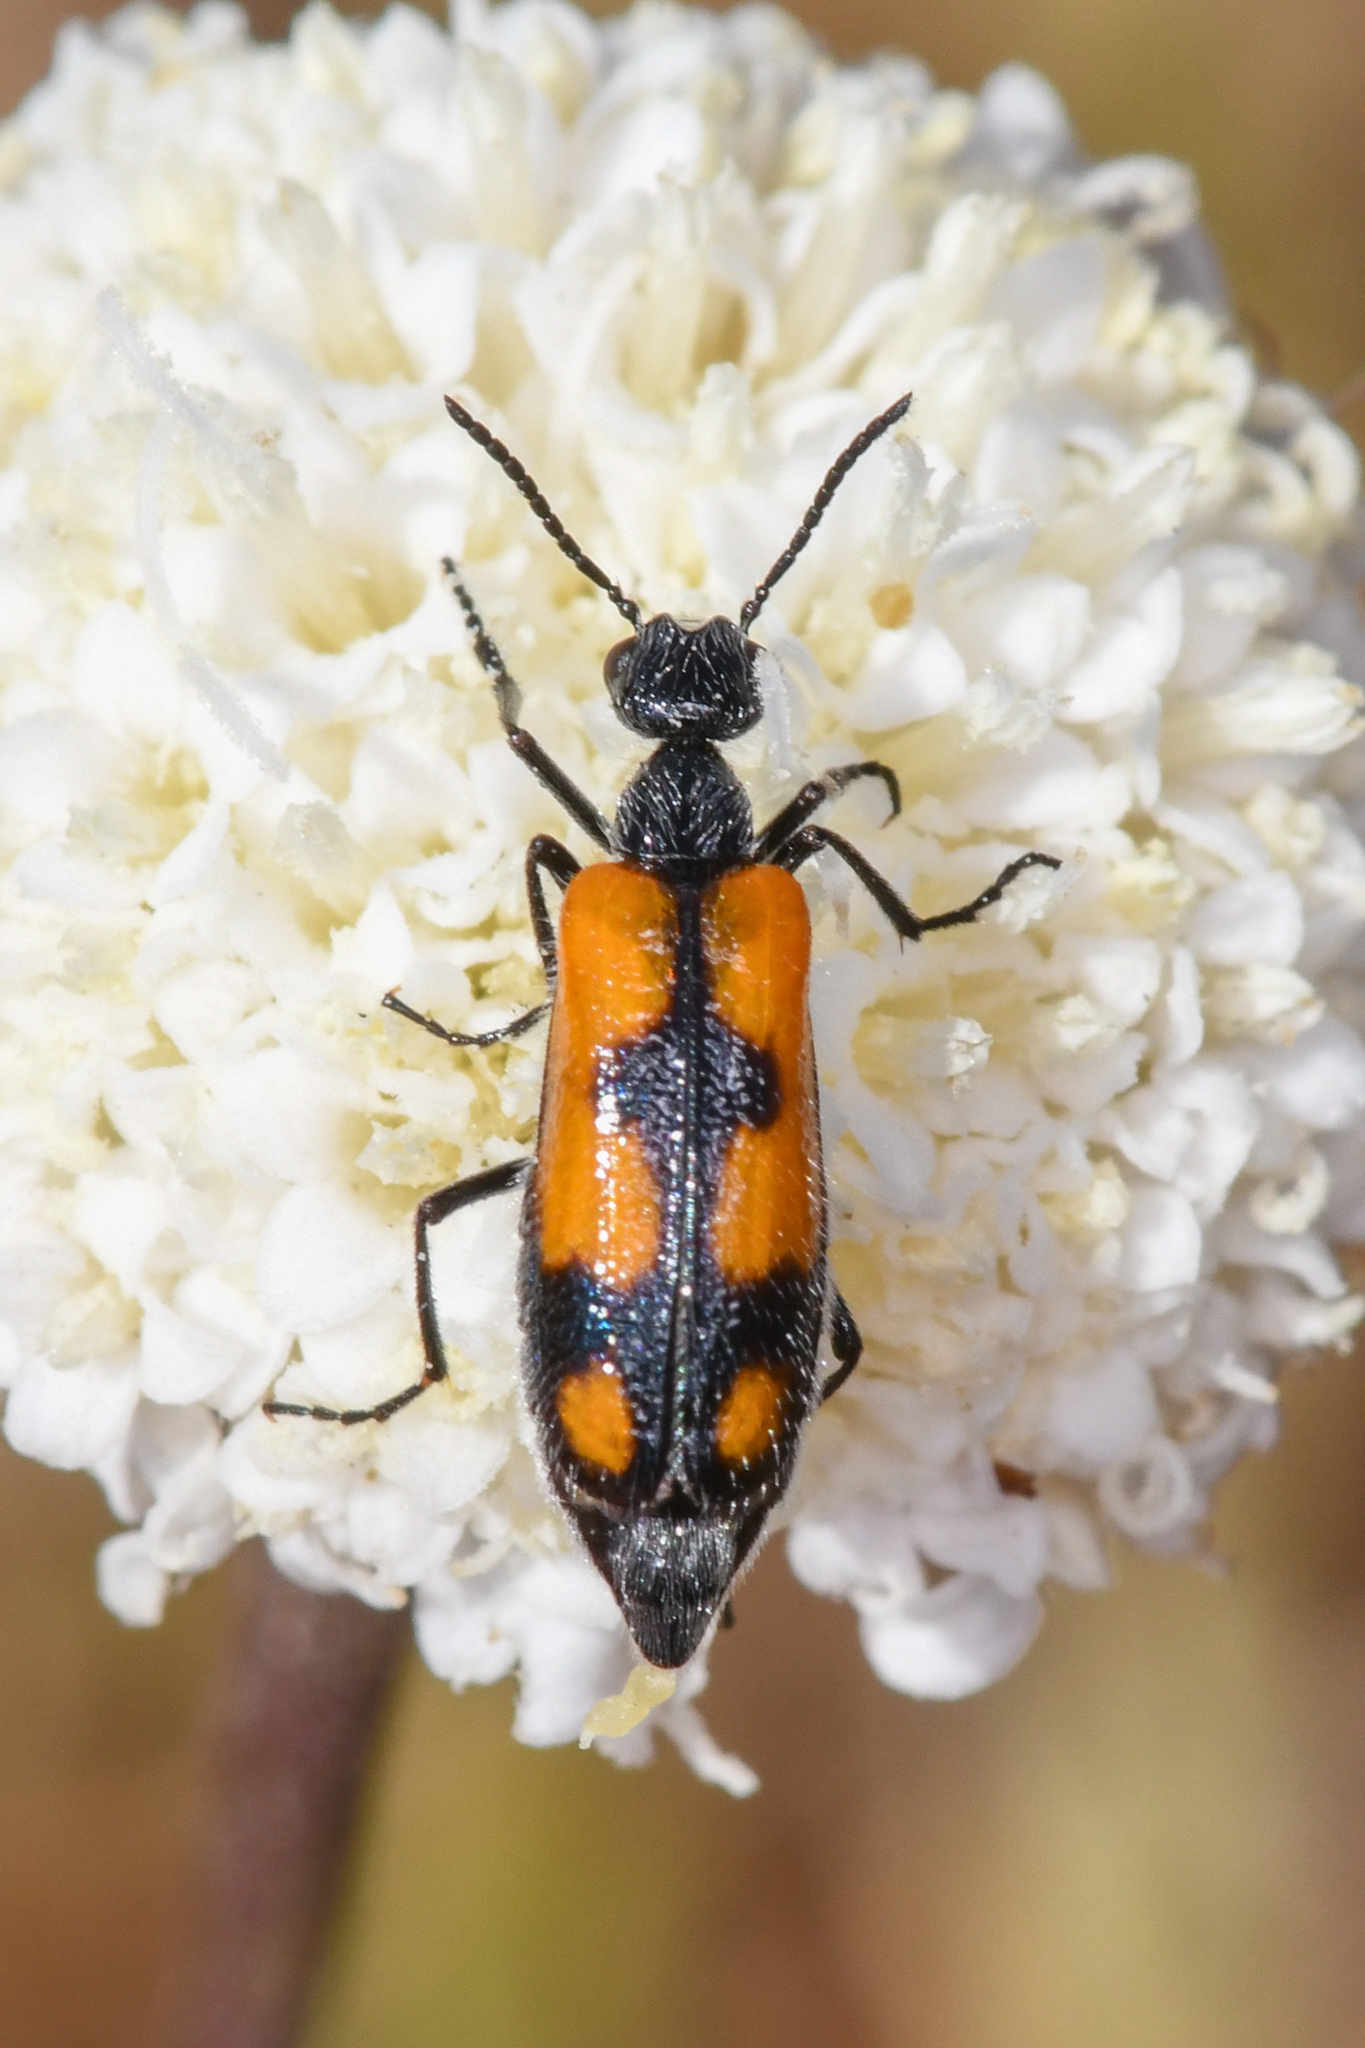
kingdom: Animalia
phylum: Arthropoda
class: Insecta
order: Coleoptera
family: Meloidae
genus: Eupompha
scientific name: Eupompha elegans
